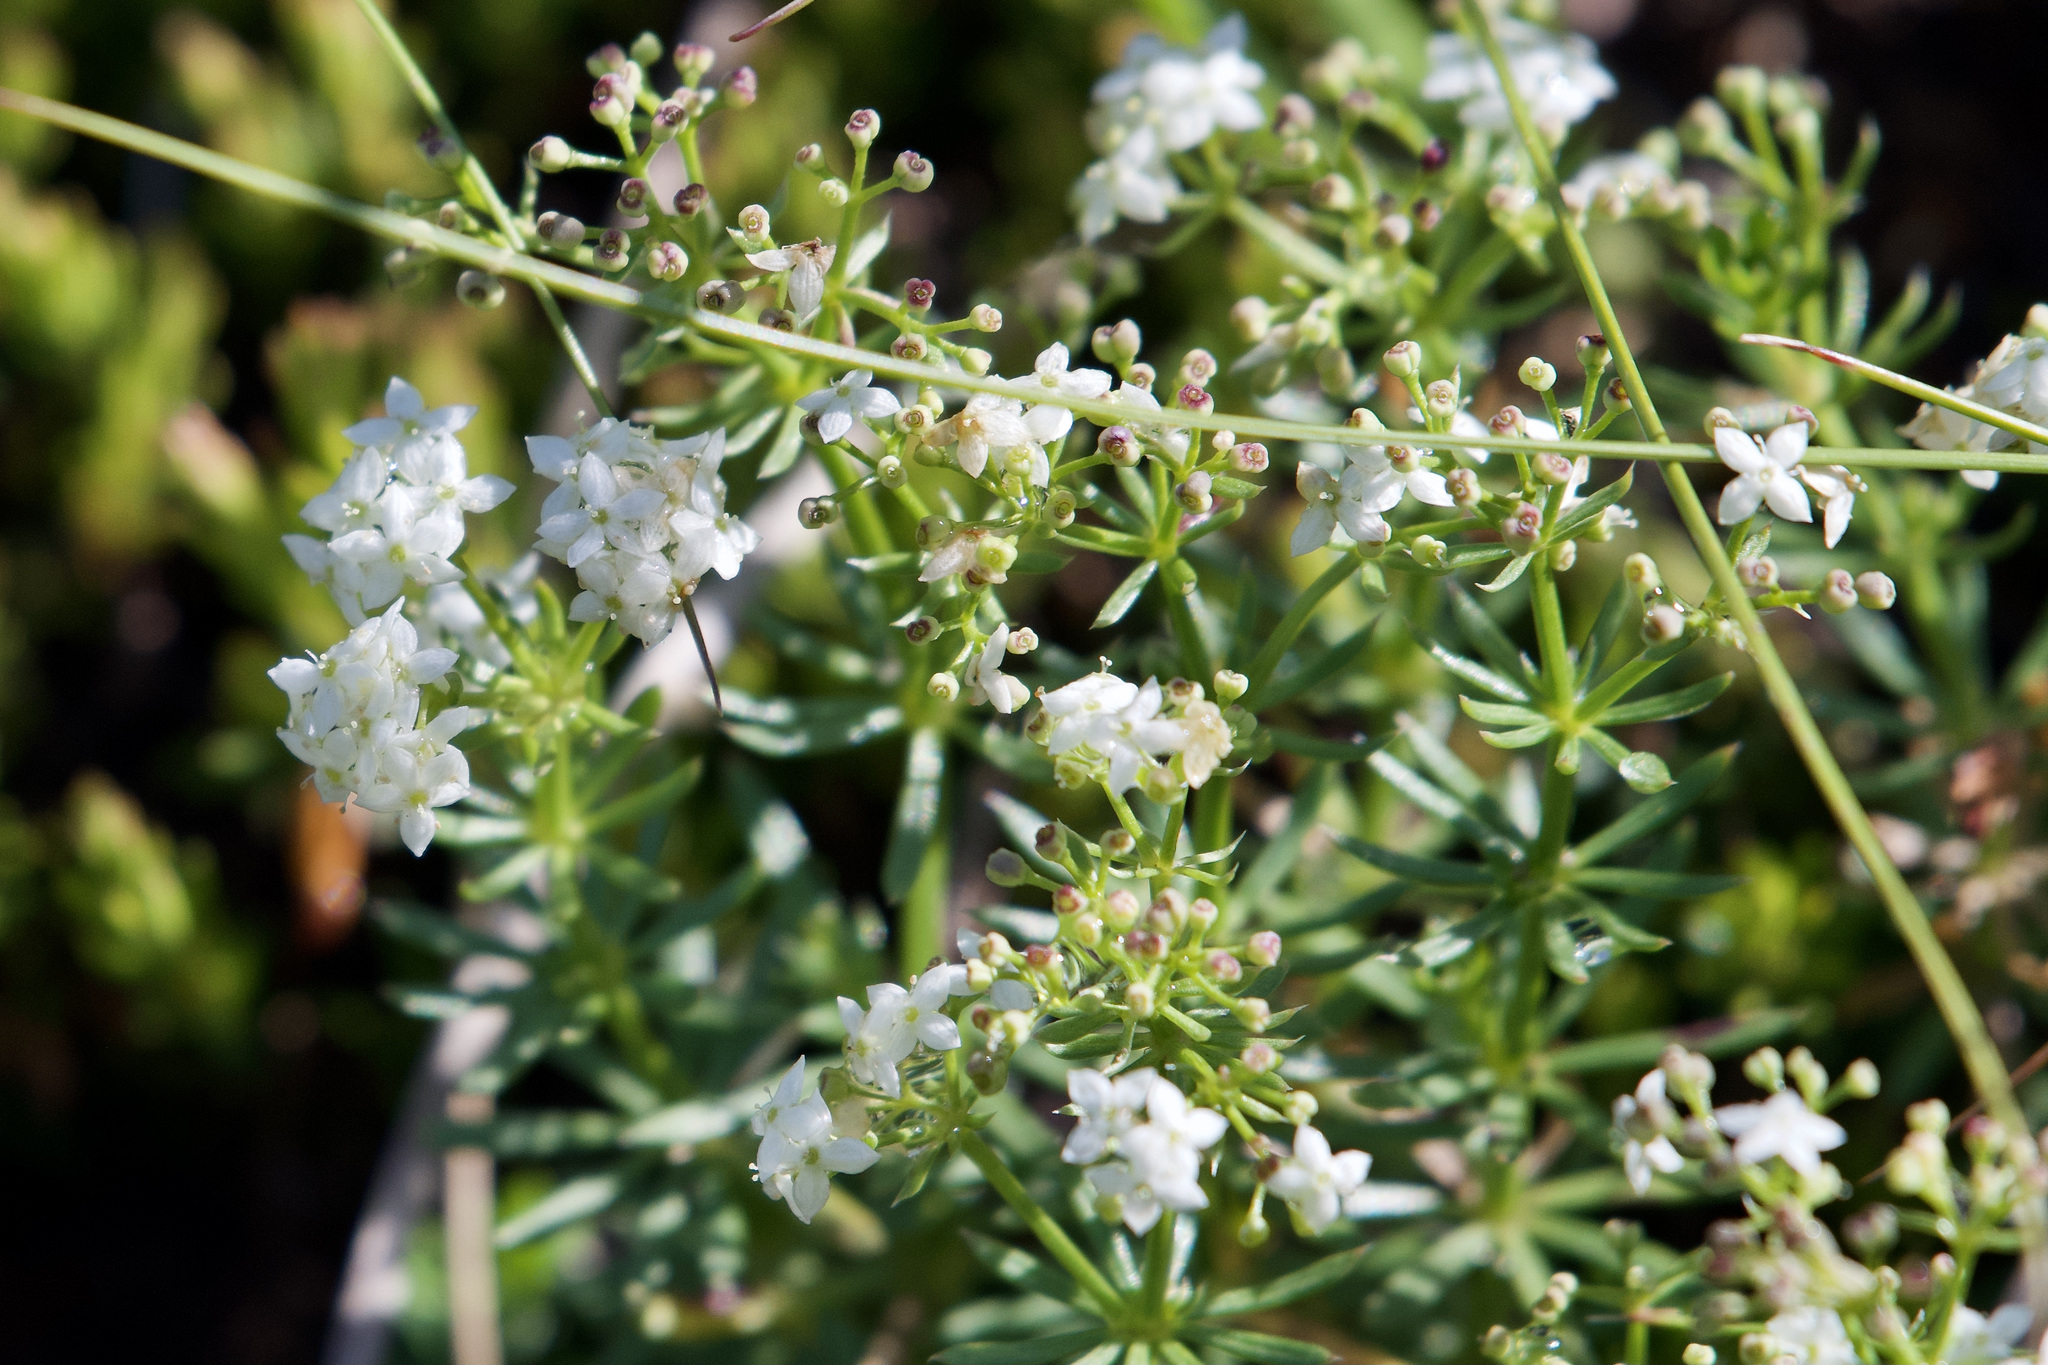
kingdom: Plantae
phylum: Tracheophyta
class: Magnoliopsida
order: Gentianales
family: Rubiaceae
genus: Galium
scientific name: Galium anisophyllon
